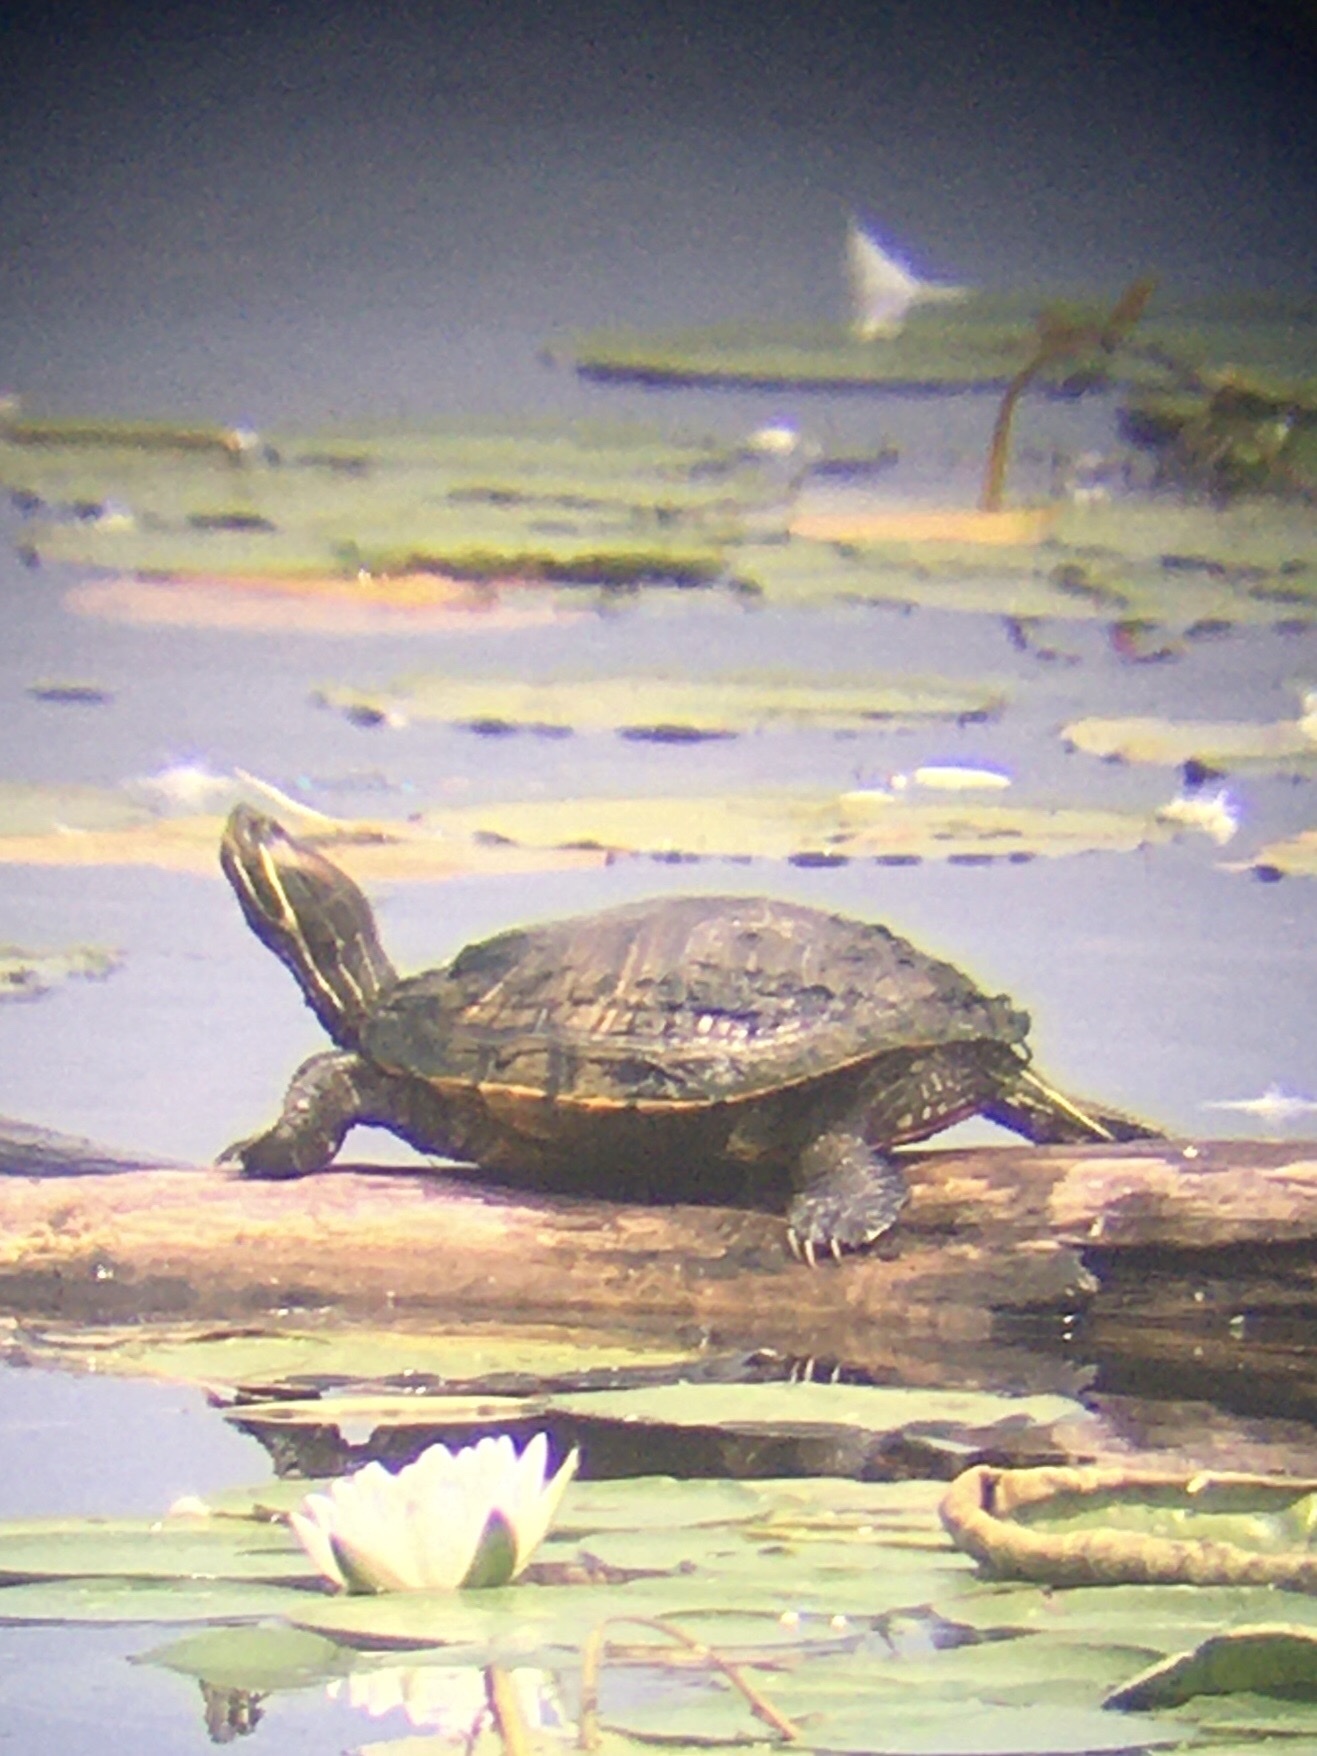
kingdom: Animalia
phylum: Chordata
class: Testudines
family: Emydidae
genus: Trachemys
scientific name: Trachemys scripta
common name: Slider
